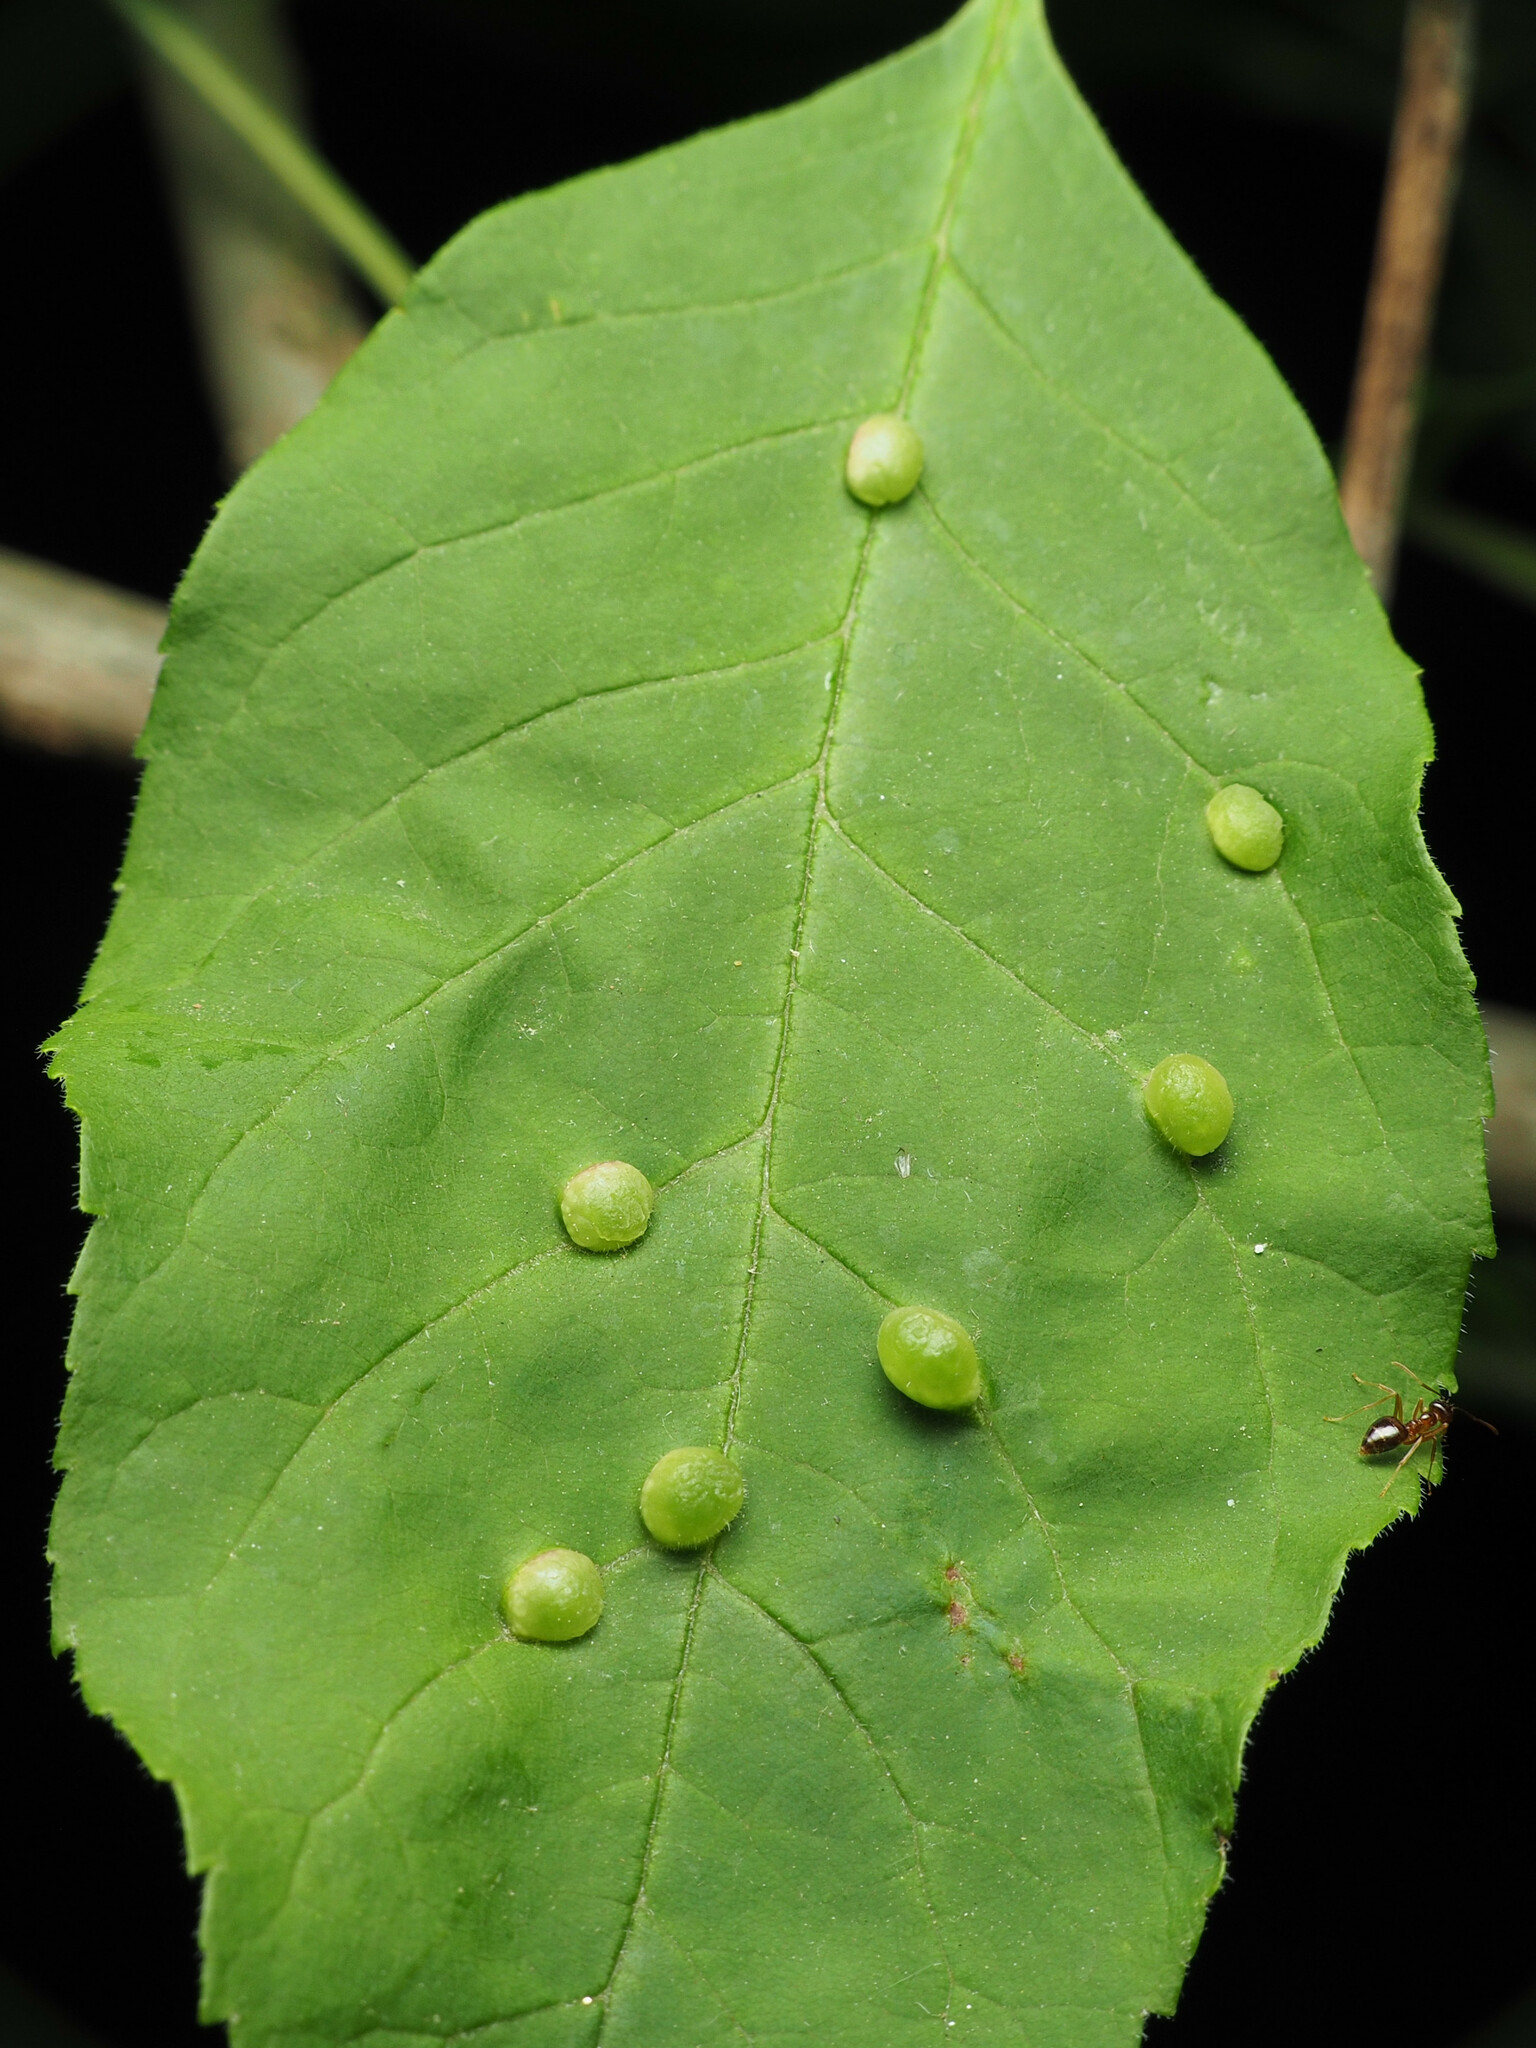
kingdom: Animalia
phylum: Arthropoda
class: Insecta
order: Diptera
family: Cecidomyiidae
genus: Dasineura
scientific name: Dasineura pellex
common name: Ash bullet gall midge
